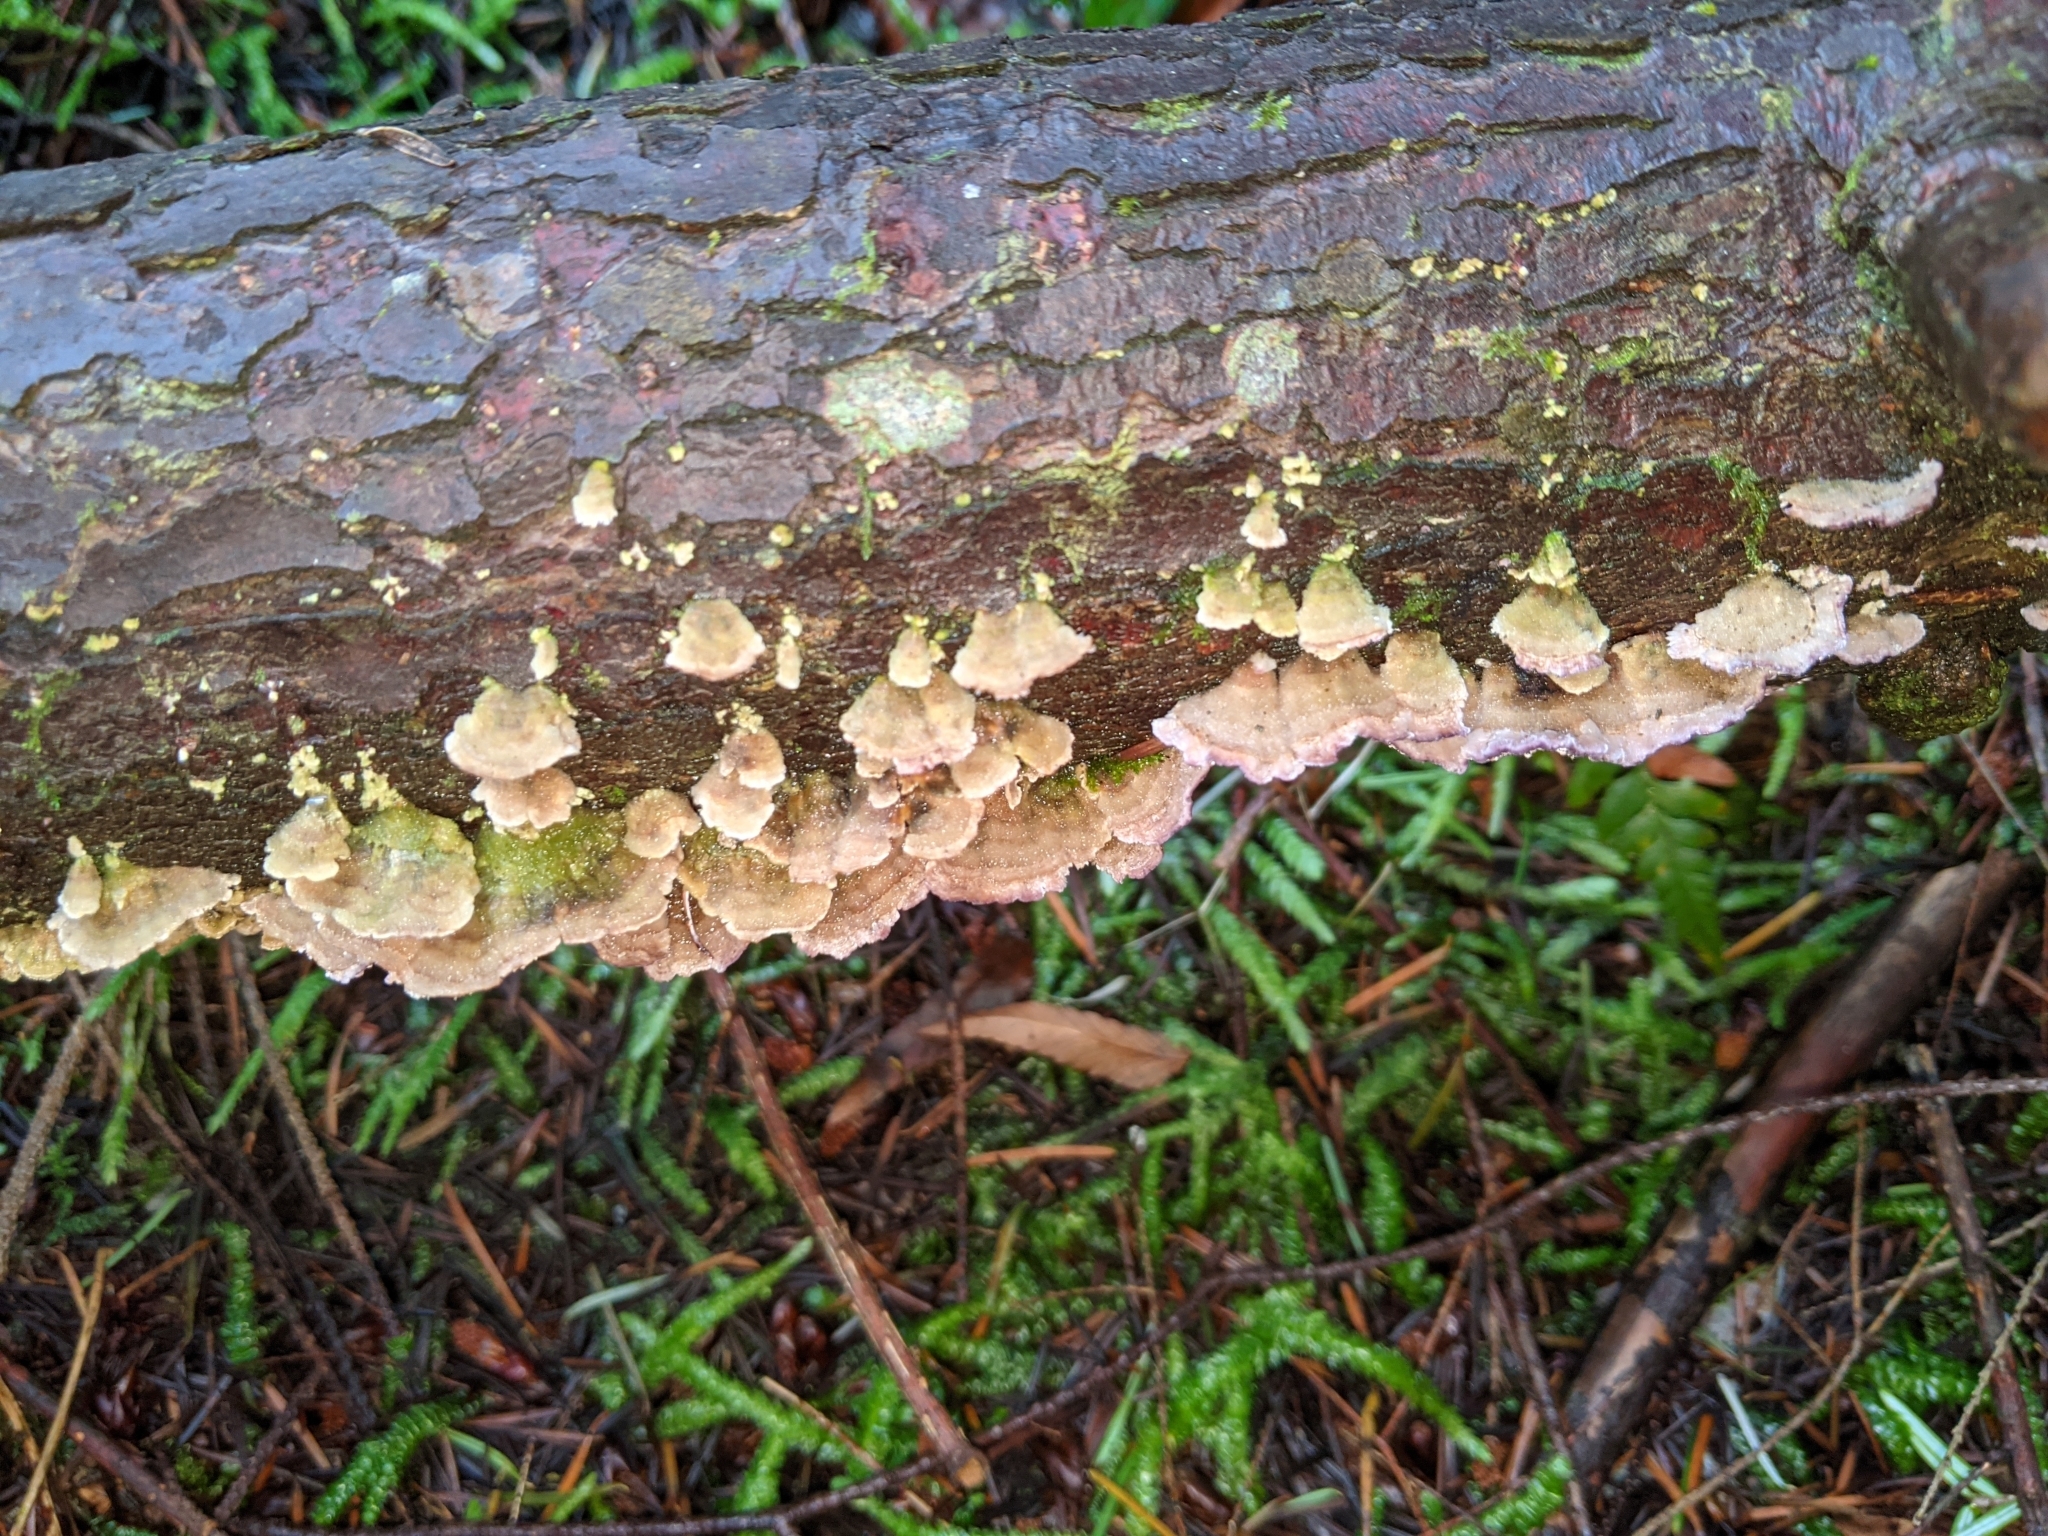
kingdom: Fungi
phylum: Basidiomycota
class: Agaricomycetes
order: Hymenochaetales
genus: Trichaptum
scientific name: Trichaptum abietinum
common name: Purplepore bracket
